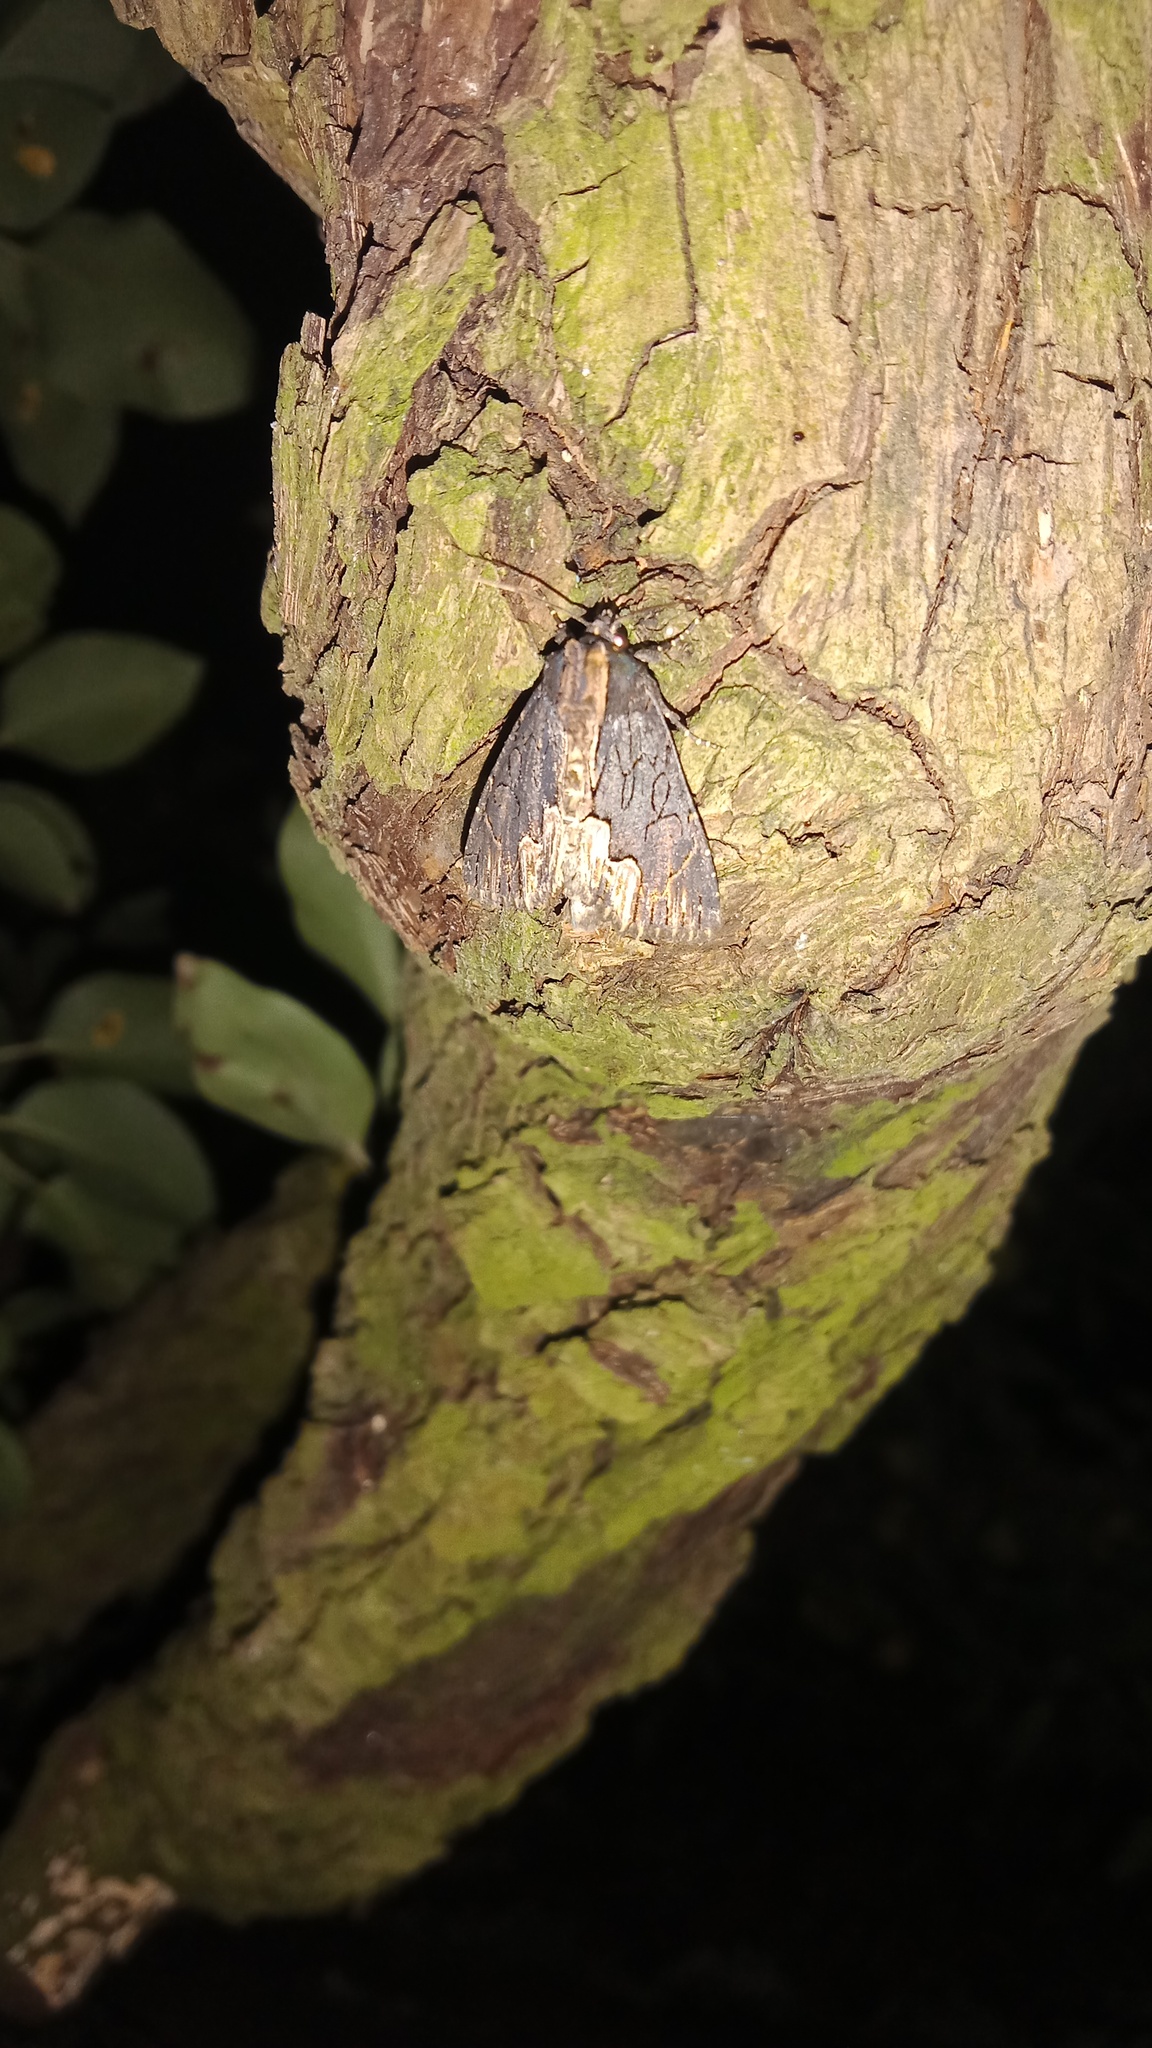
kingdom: Animalia
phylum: Arthropoda
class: Insecta
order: Lepidoptera
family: Noctuidae
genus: Dypterygia
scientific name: Dypterygia scabriuscula
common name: Bird's wing
